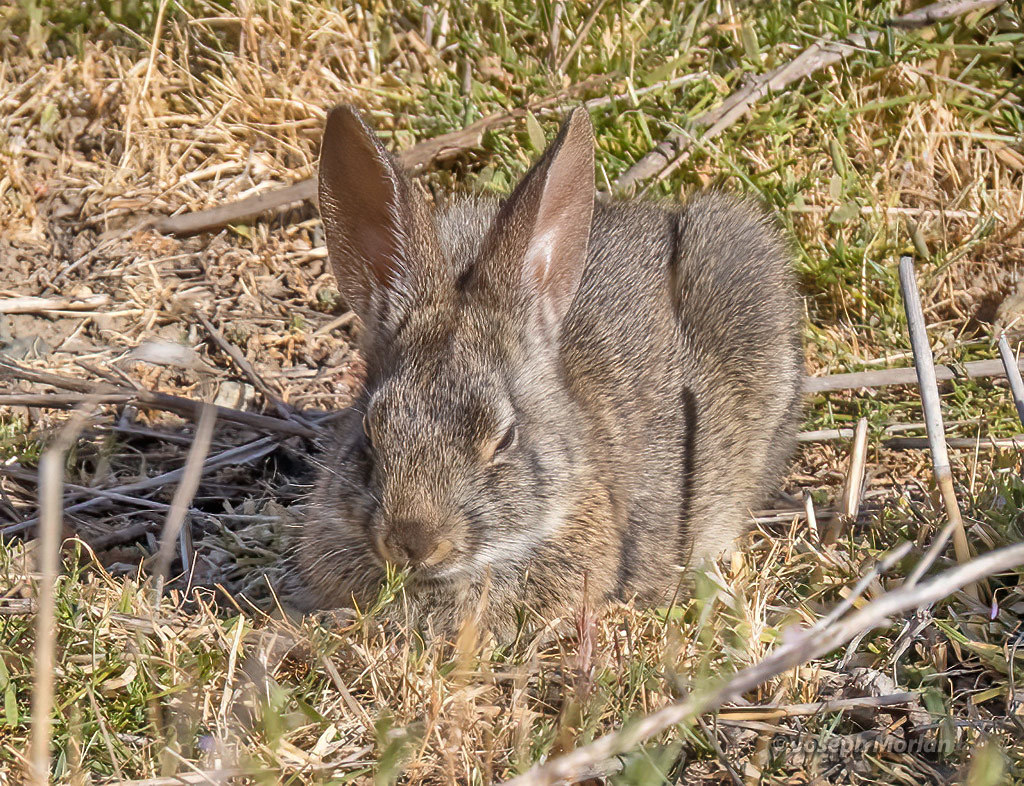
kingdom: Animalia
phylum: Chordata
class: Mammalia
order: Lagomorpha
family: Leporidae
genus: Sylvilagus
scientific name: Sylvilagus bachmani
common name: Brush rabbit
